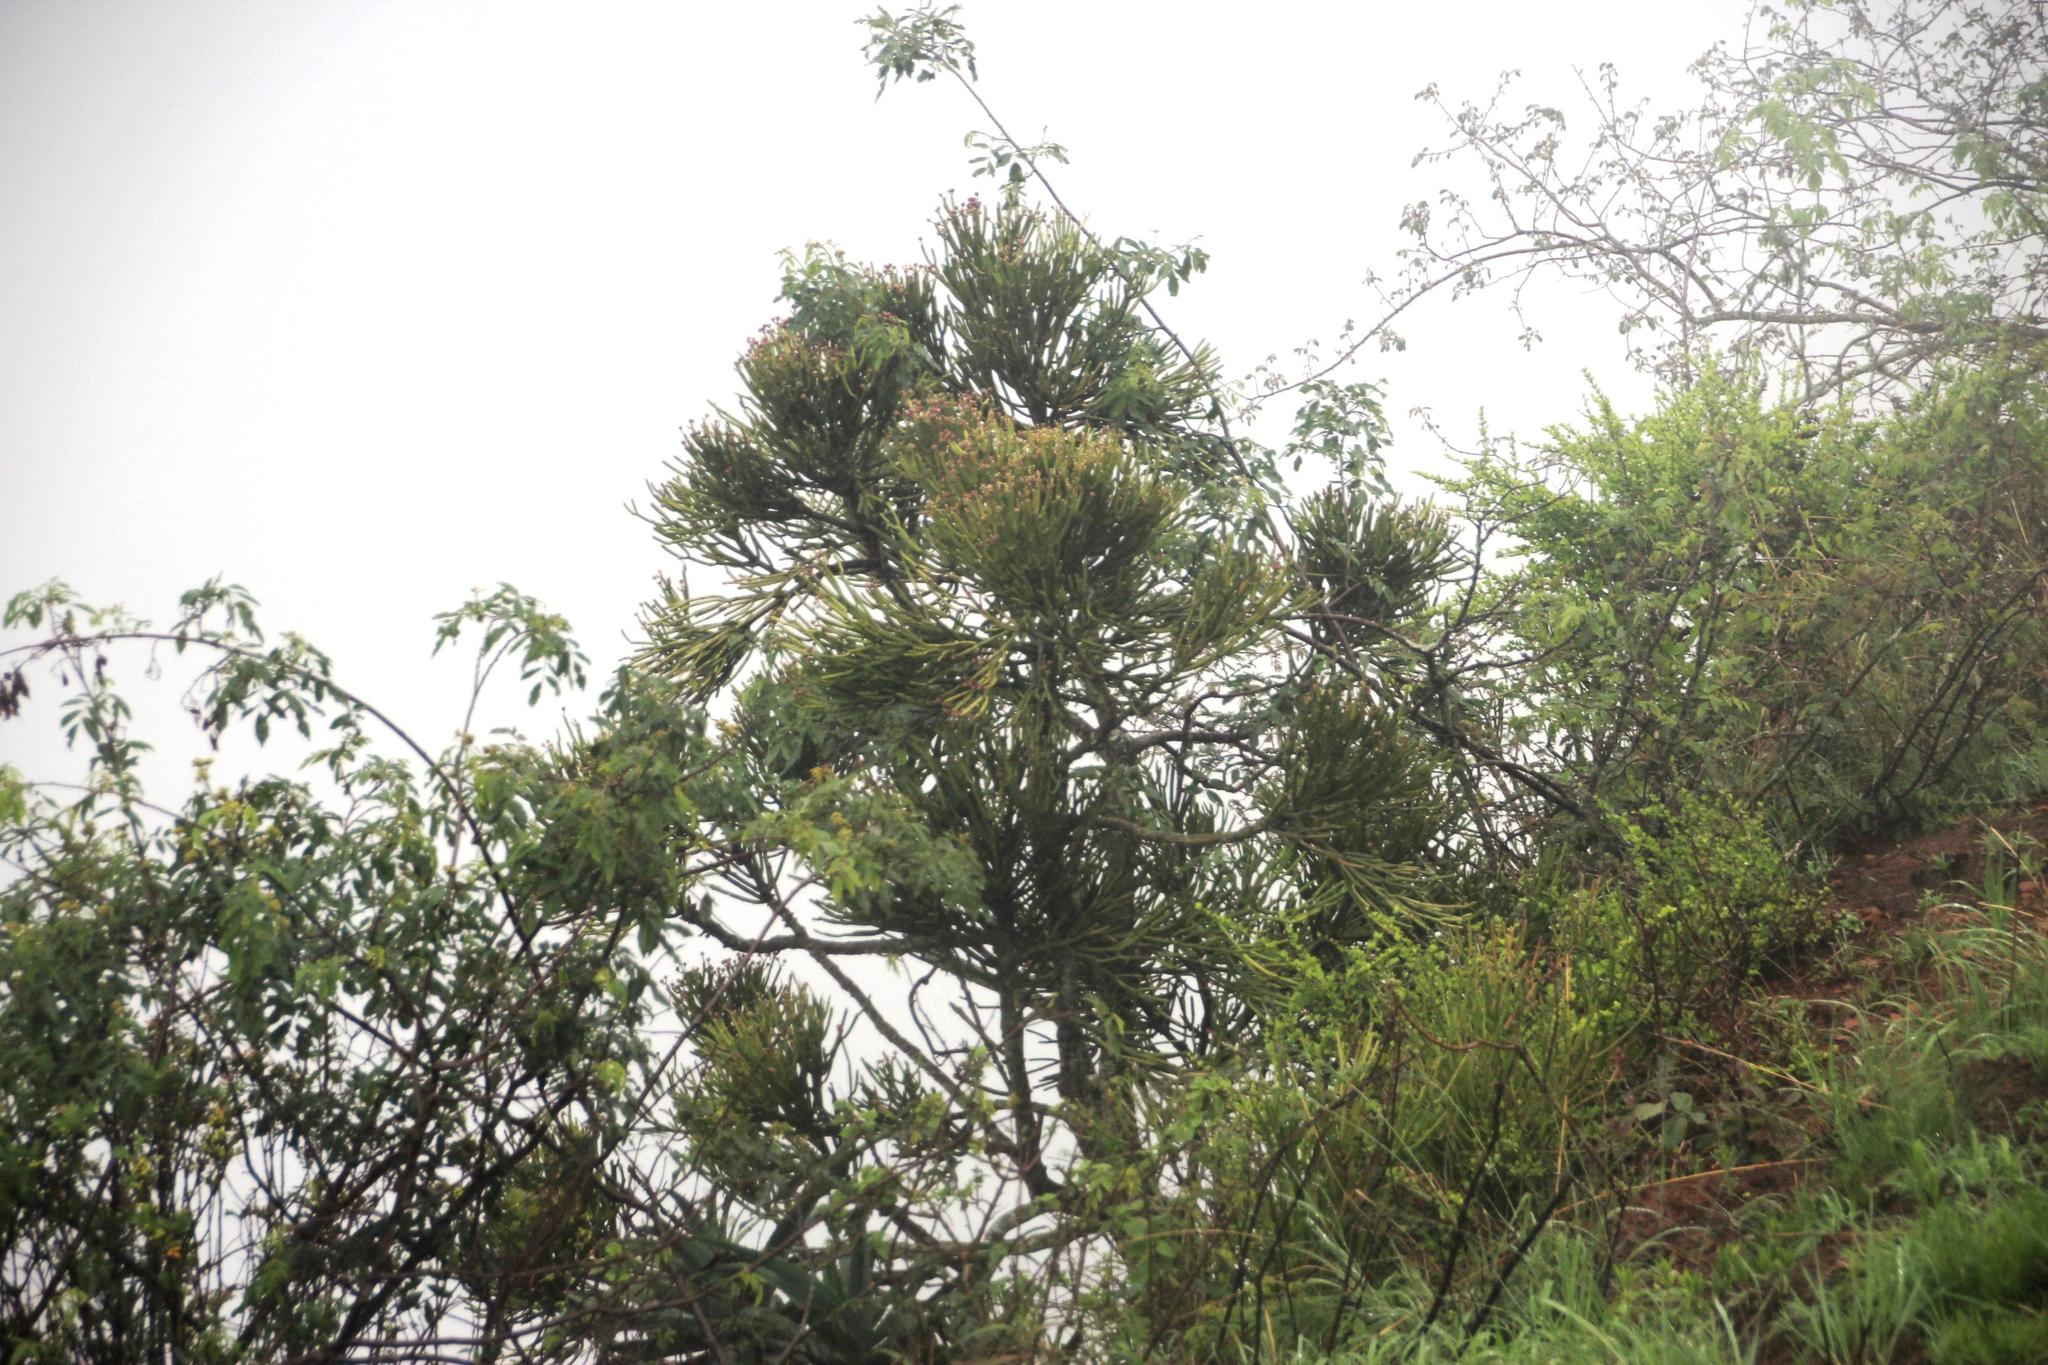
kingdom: Plantae
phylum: Tracheophyta
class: Magnoliopsida
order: Malpighiales
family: Euphorbiaceae
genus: Euphorbia
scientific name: Euphorbia tirucalli
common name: Indiantree spurge
